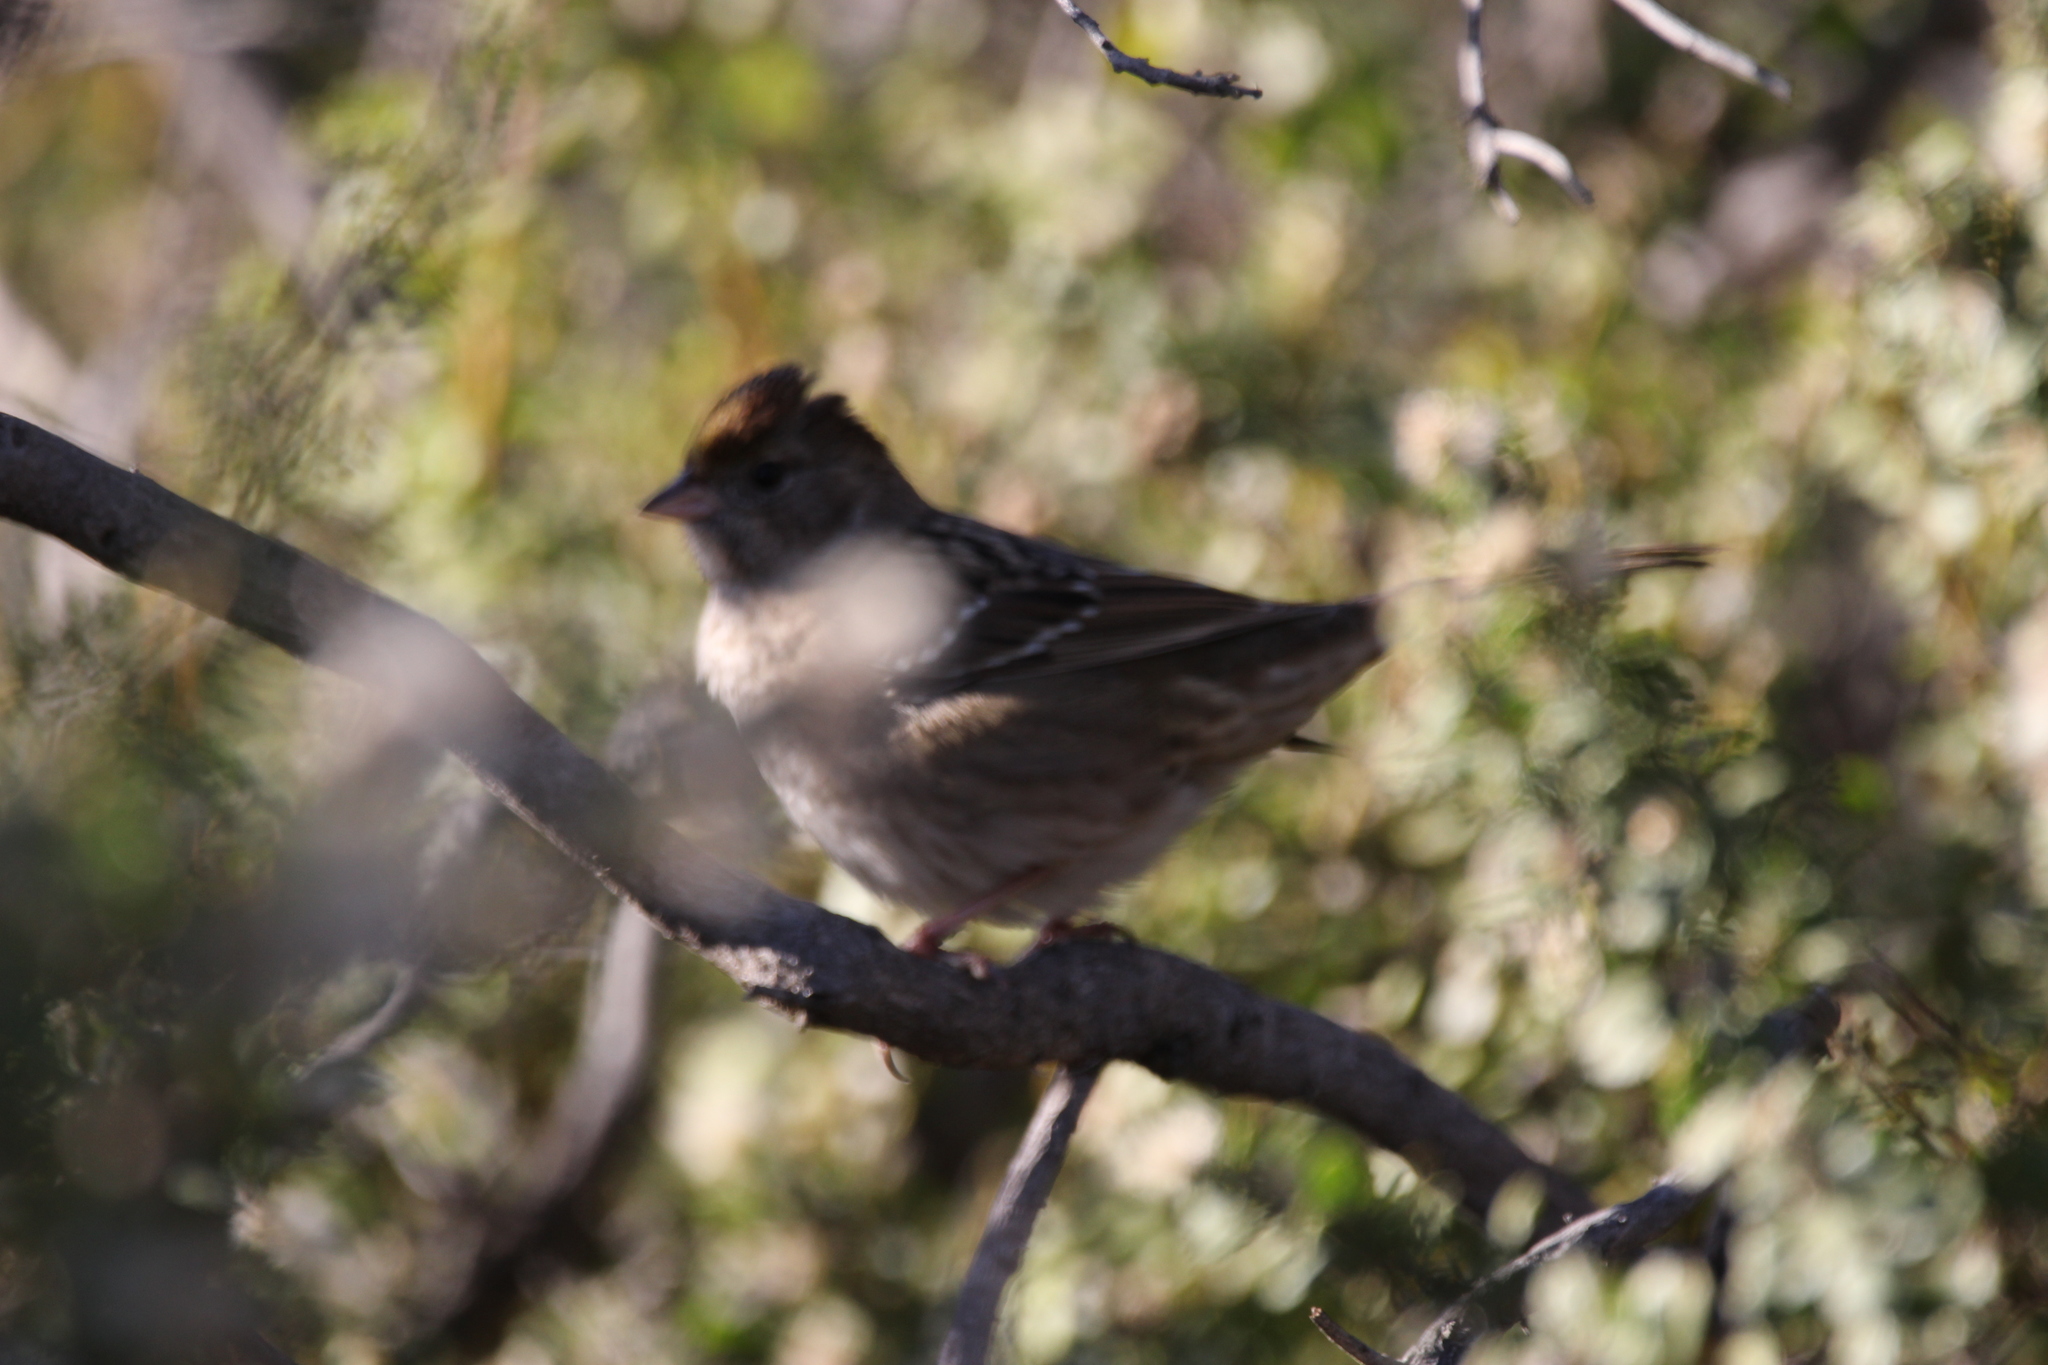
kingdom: Animalia
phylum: Chordata
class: Aves
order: Passeriformes
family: Passerellidae
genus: Zonotrichia
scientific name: Zonotrichia atricapilla
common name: Golden-crowned sparrow
